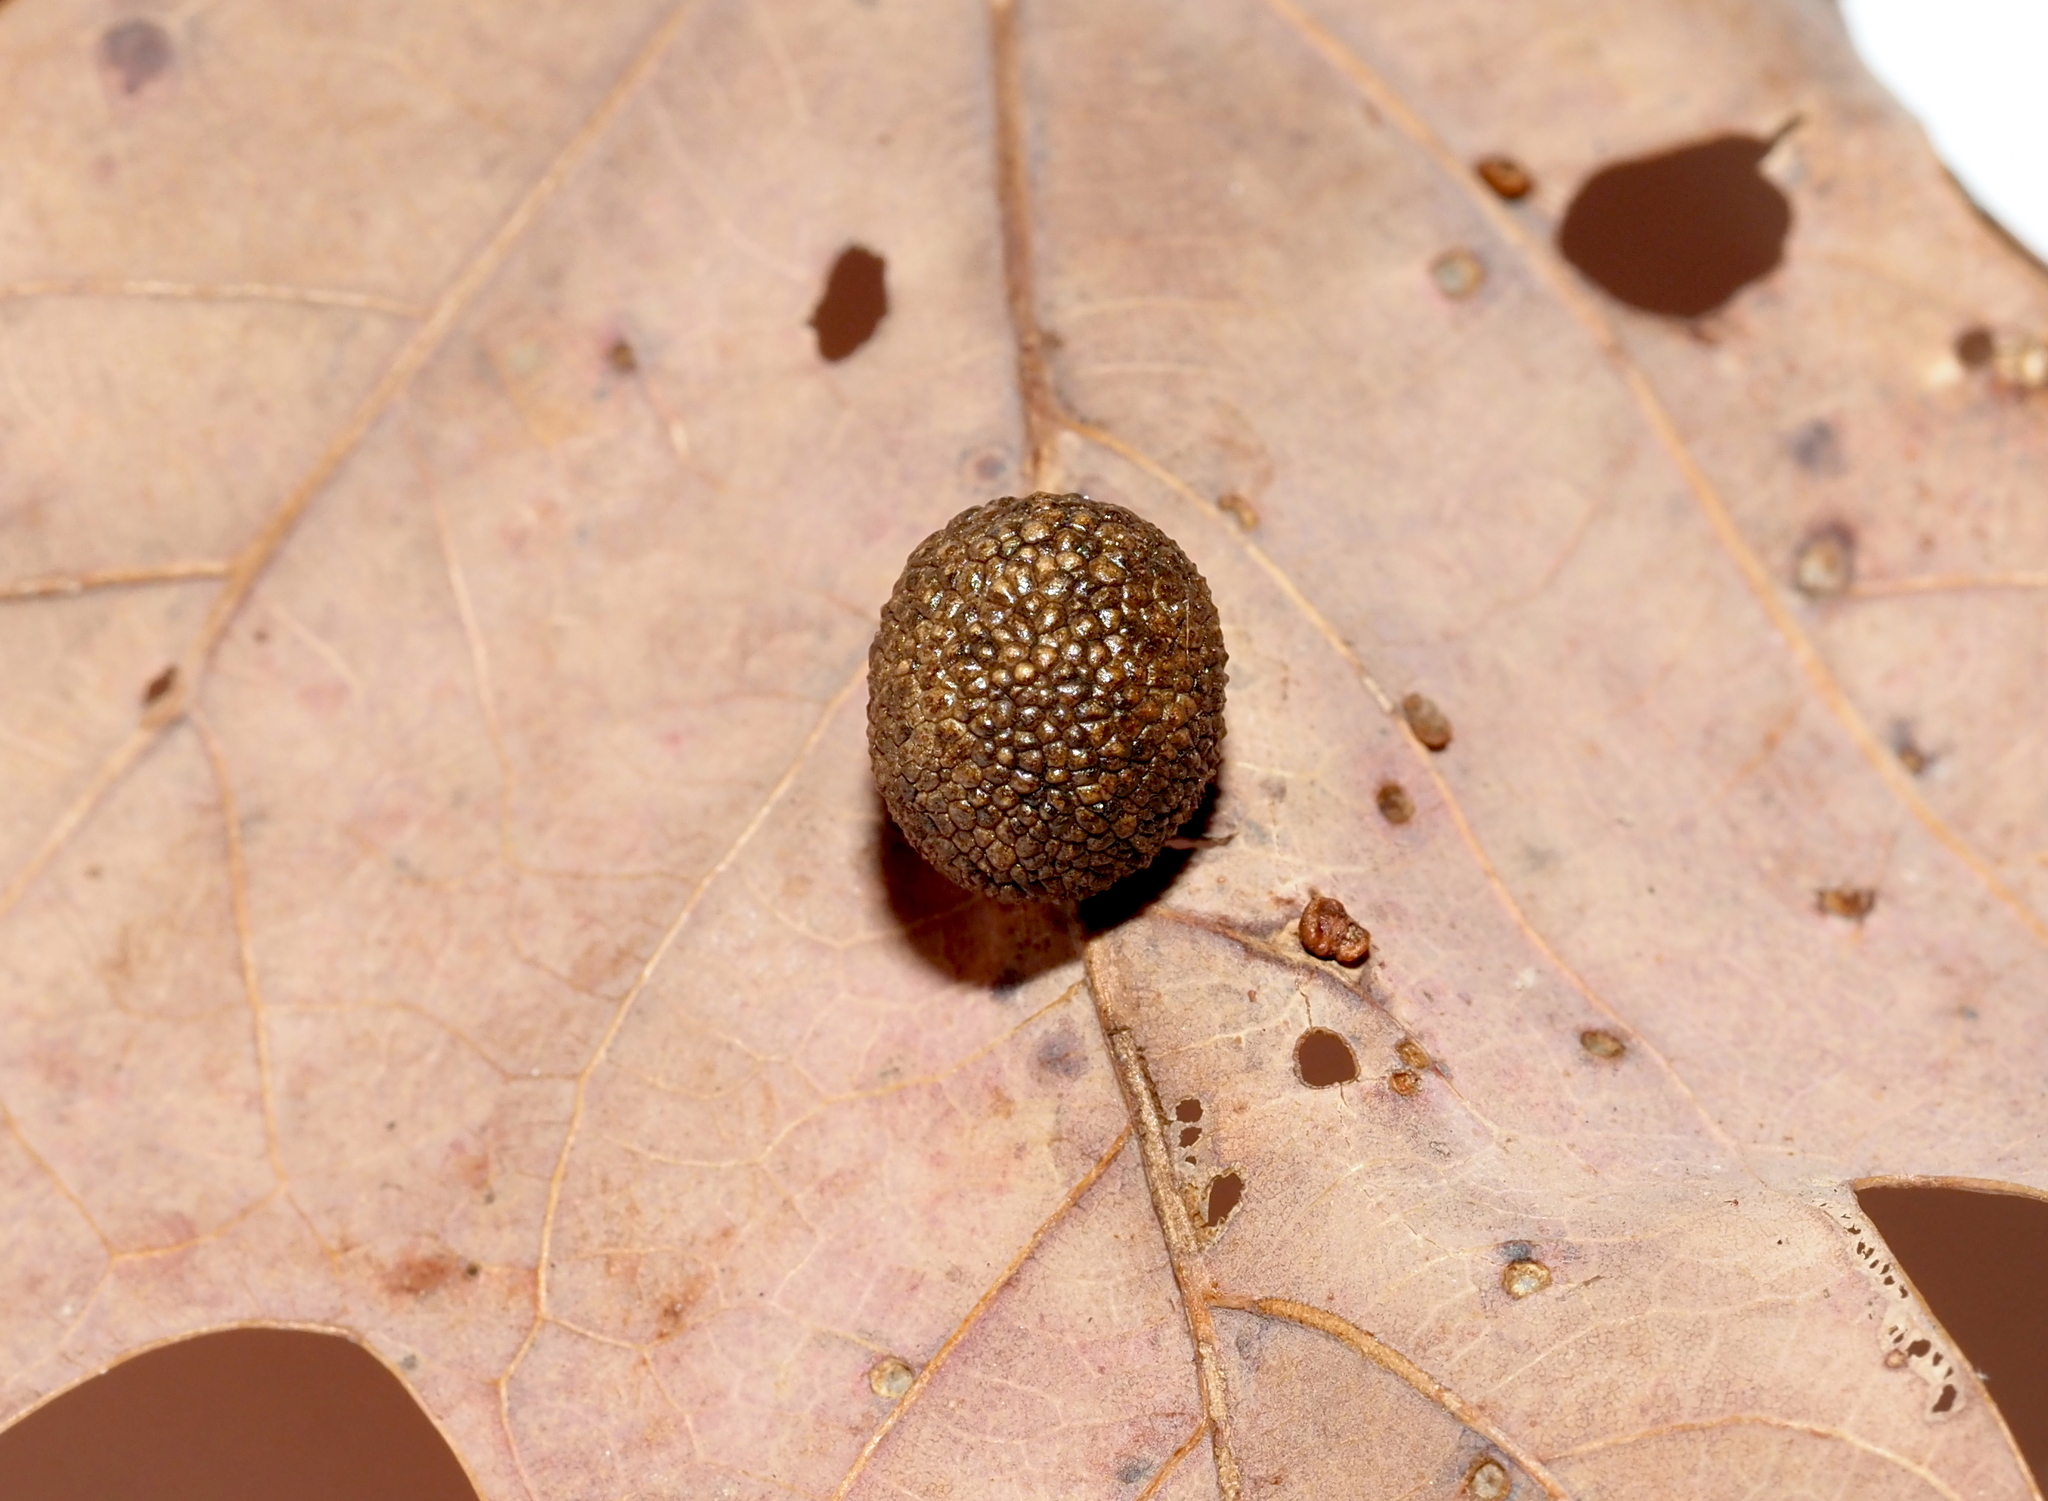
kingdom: Animalia
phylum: Arthropoda
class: Insecta
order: Hymenoptera
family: Cynipidae
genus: Acraspis
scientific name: Acraspis erinacei
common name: Hedgehog gall wasp
